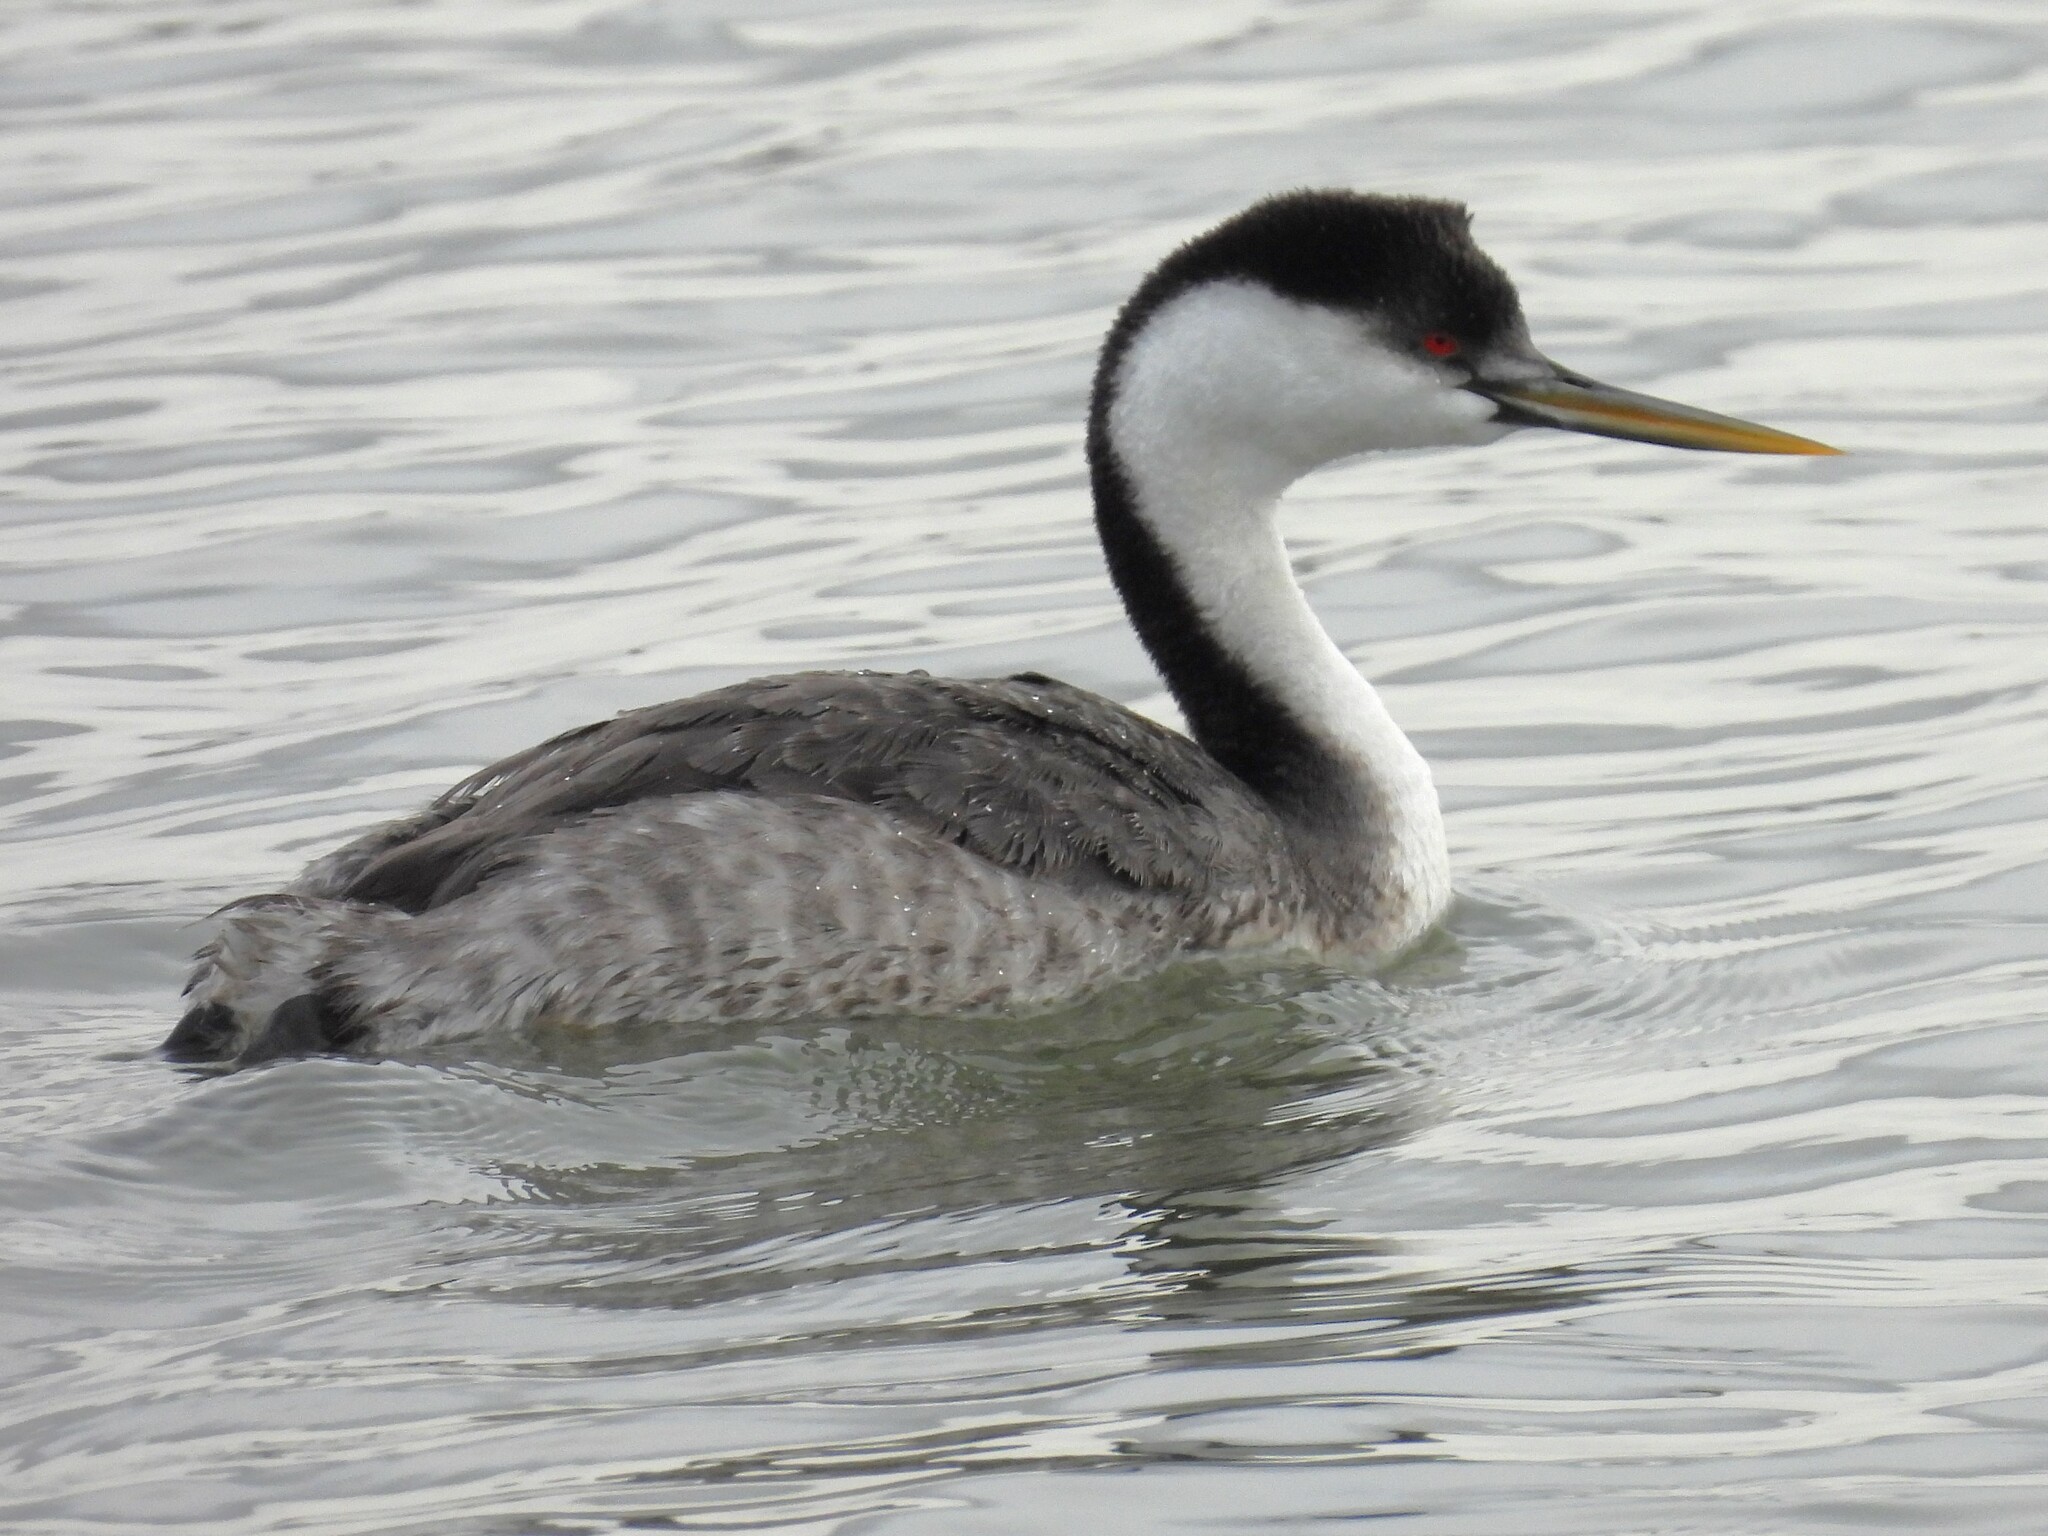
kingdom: Animalia
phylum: Chordata
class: Aves
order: Podicipediformes
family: Podicipedidae
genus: Aechmophorus
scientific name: Aechmophorus occidentalis
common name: Western grebe
